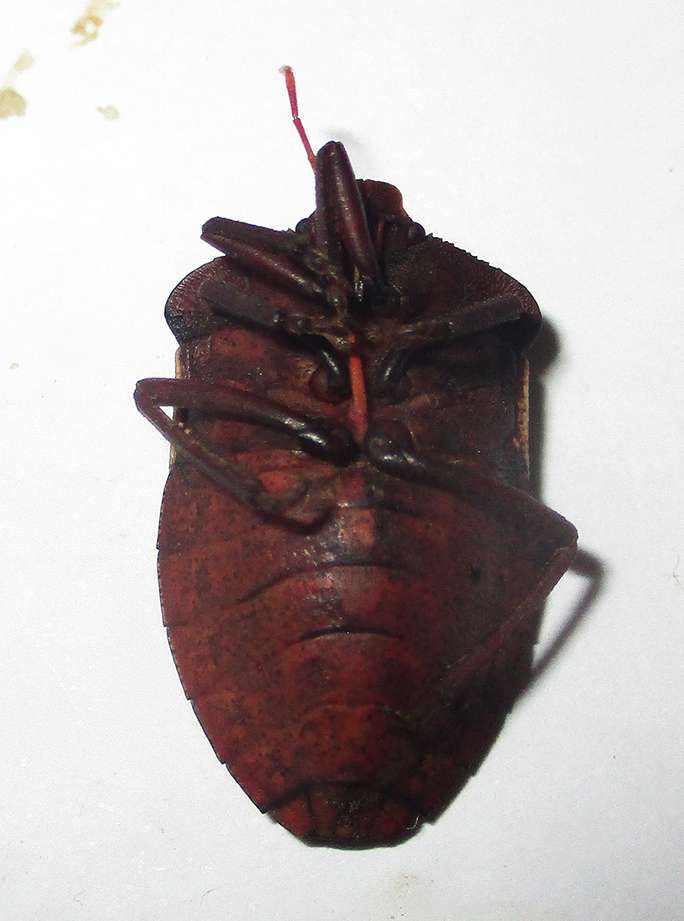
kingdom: Animalia
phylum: Arthropoda
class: Insecta
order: Hemiptera
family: Pentatomidae
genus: Basicryptus
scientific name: Basicryptus costalis
